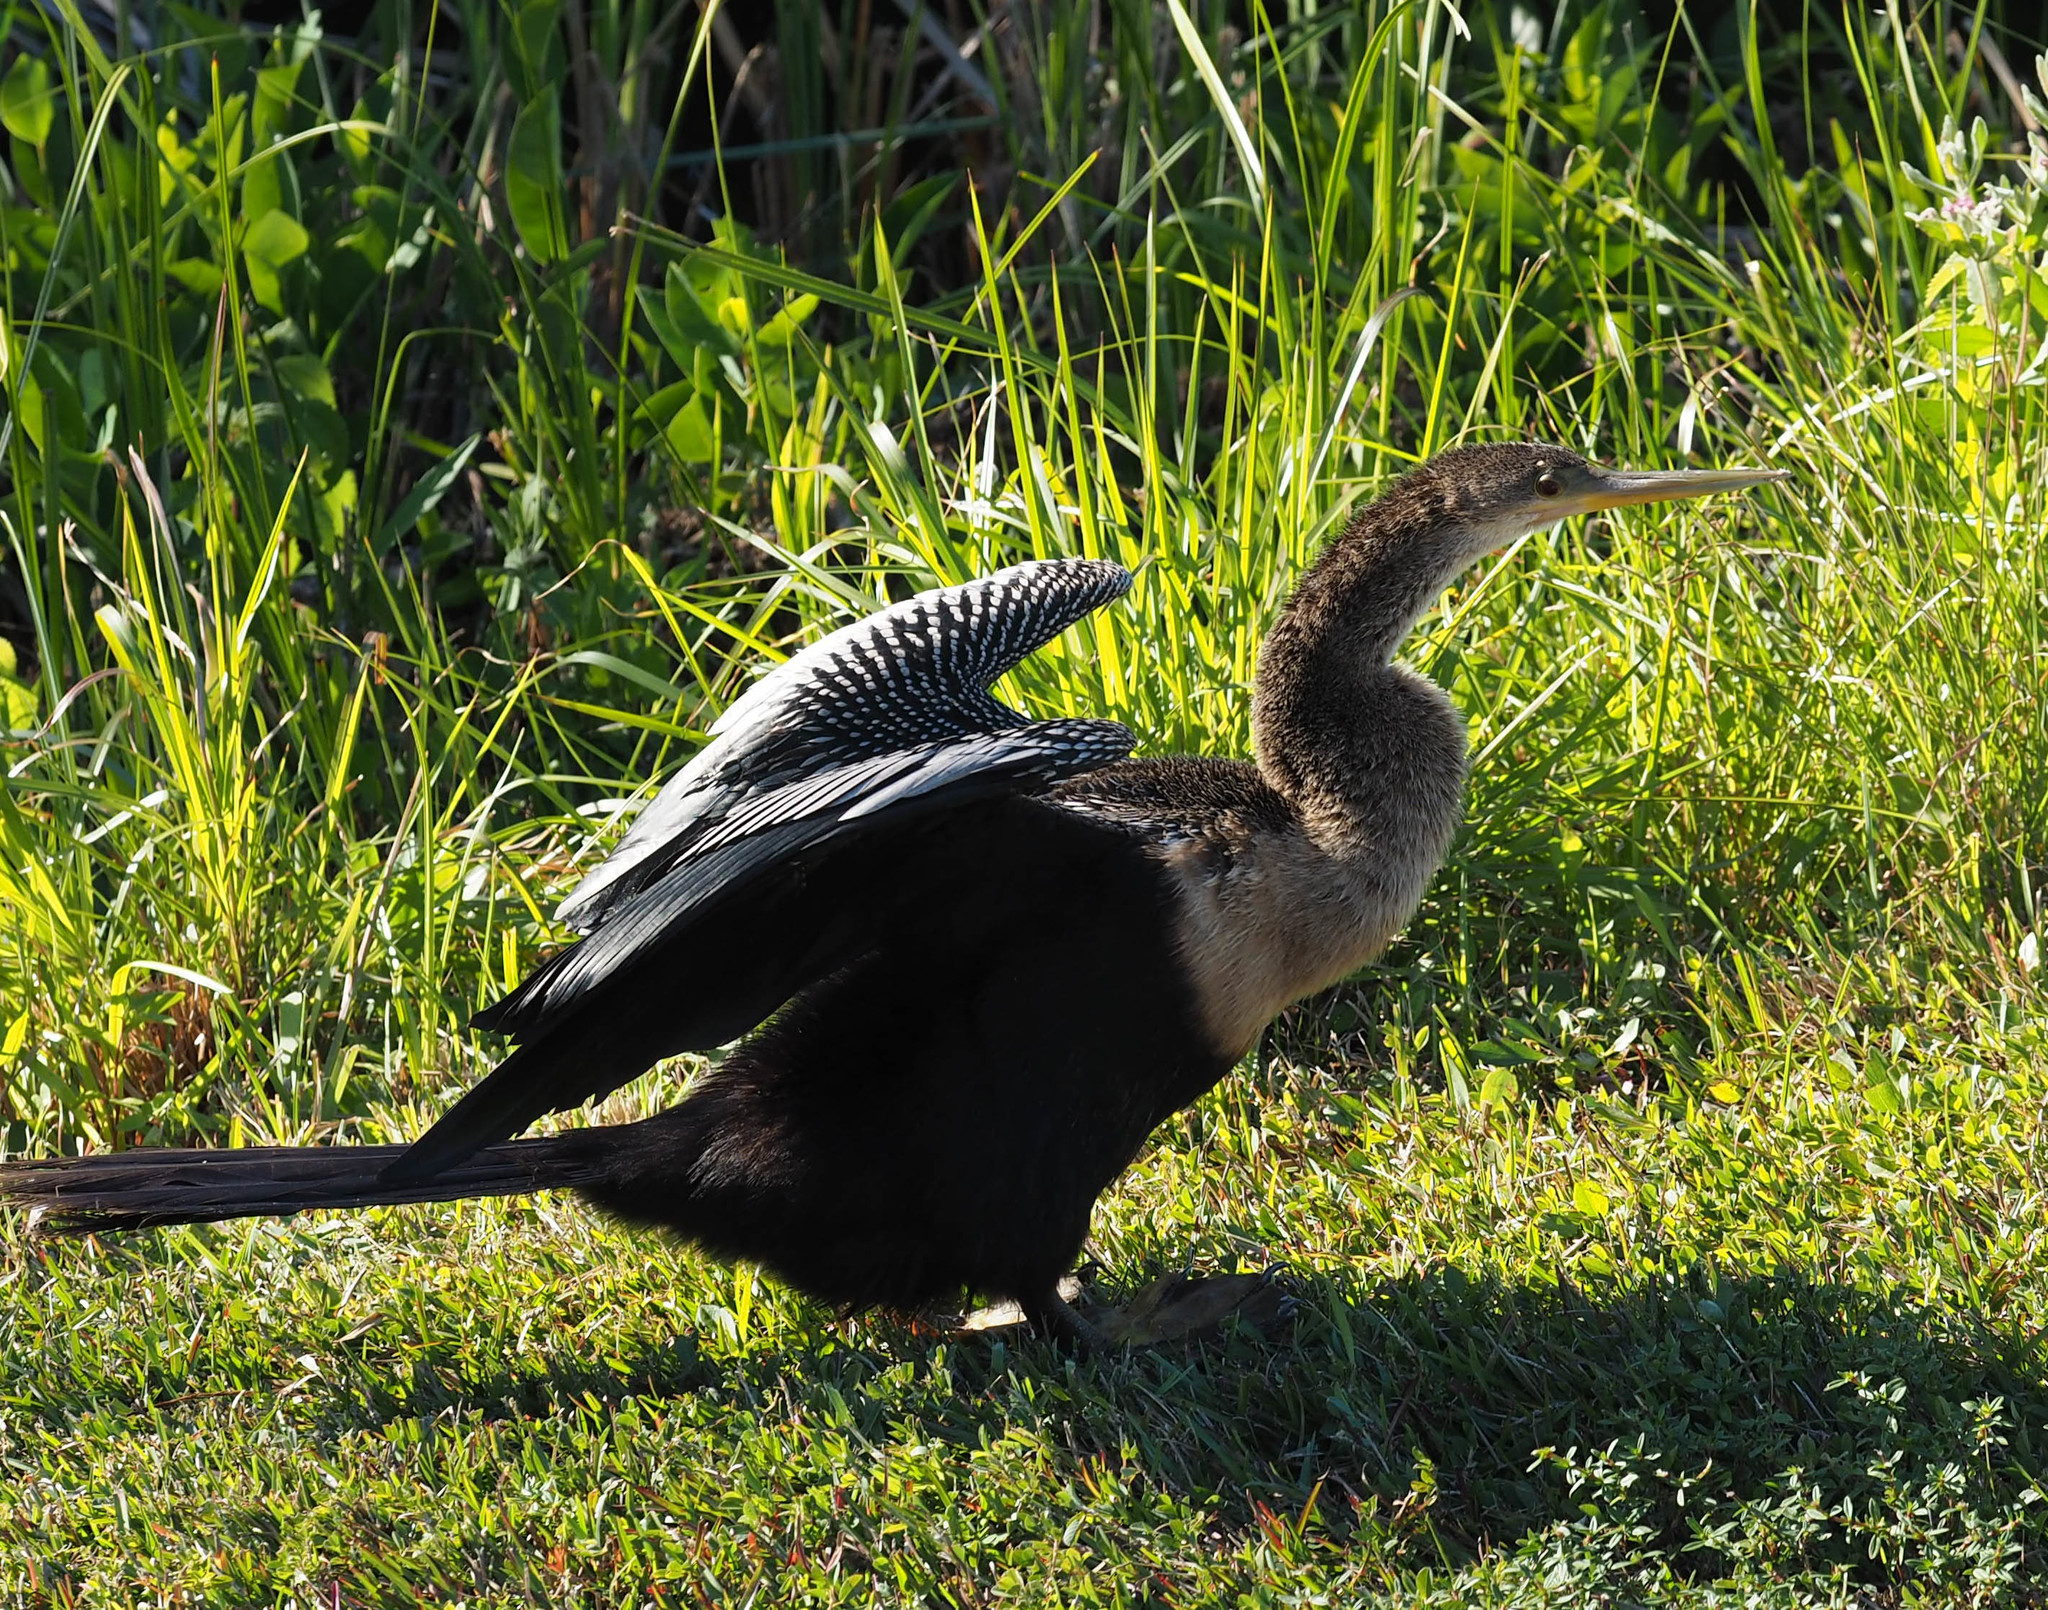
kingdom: Animalia
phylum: Chordata
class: Aves
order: Suliformes
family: Anhingidae
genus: Anhinga
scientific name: Anhinga anhinga
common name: Anhinga
